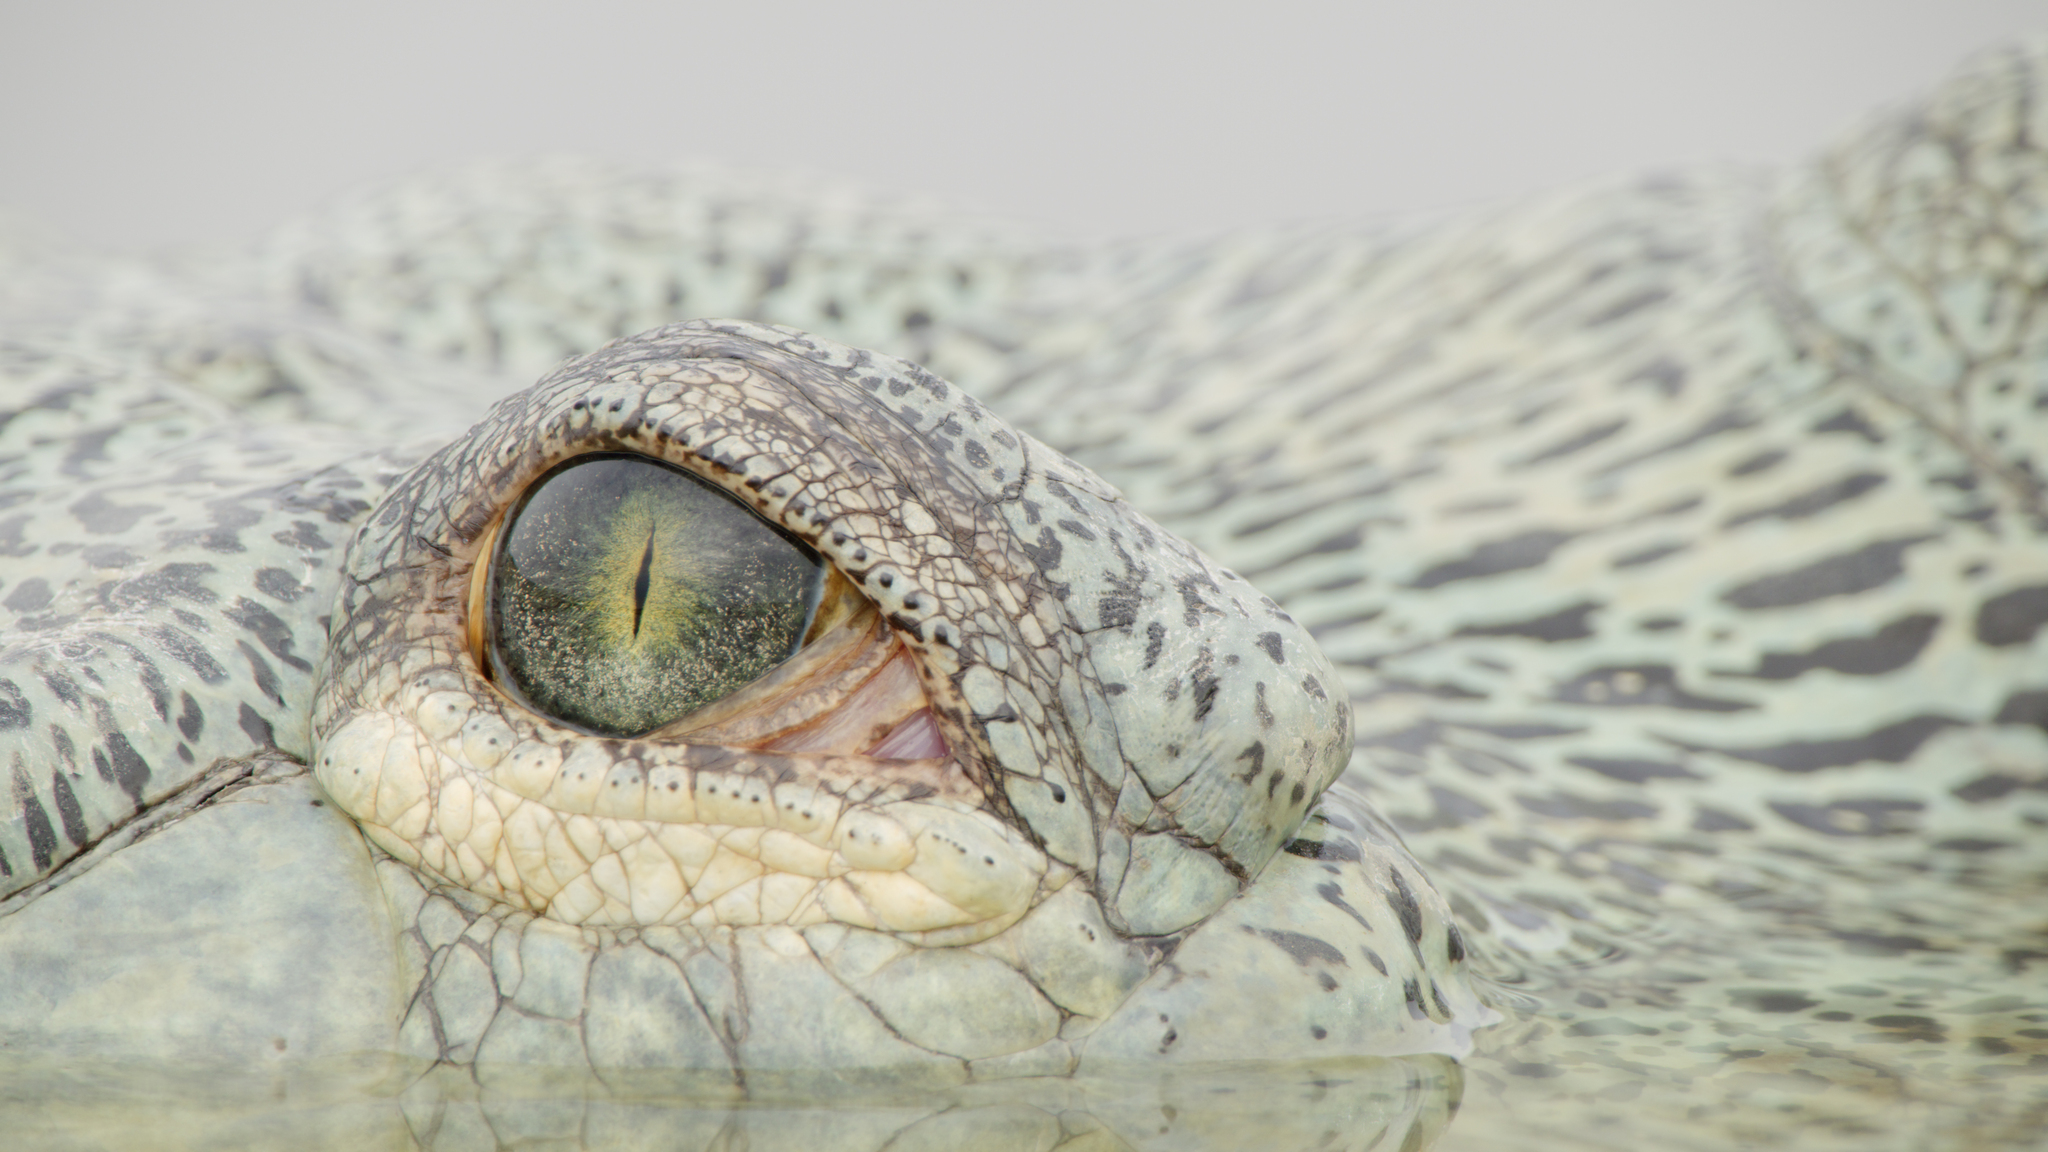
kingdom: Animalia
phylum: Chordata
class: Crocodylia
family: Gavialidae
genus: Gavialis
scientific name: Gavialis gangeticus
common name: Gharial
